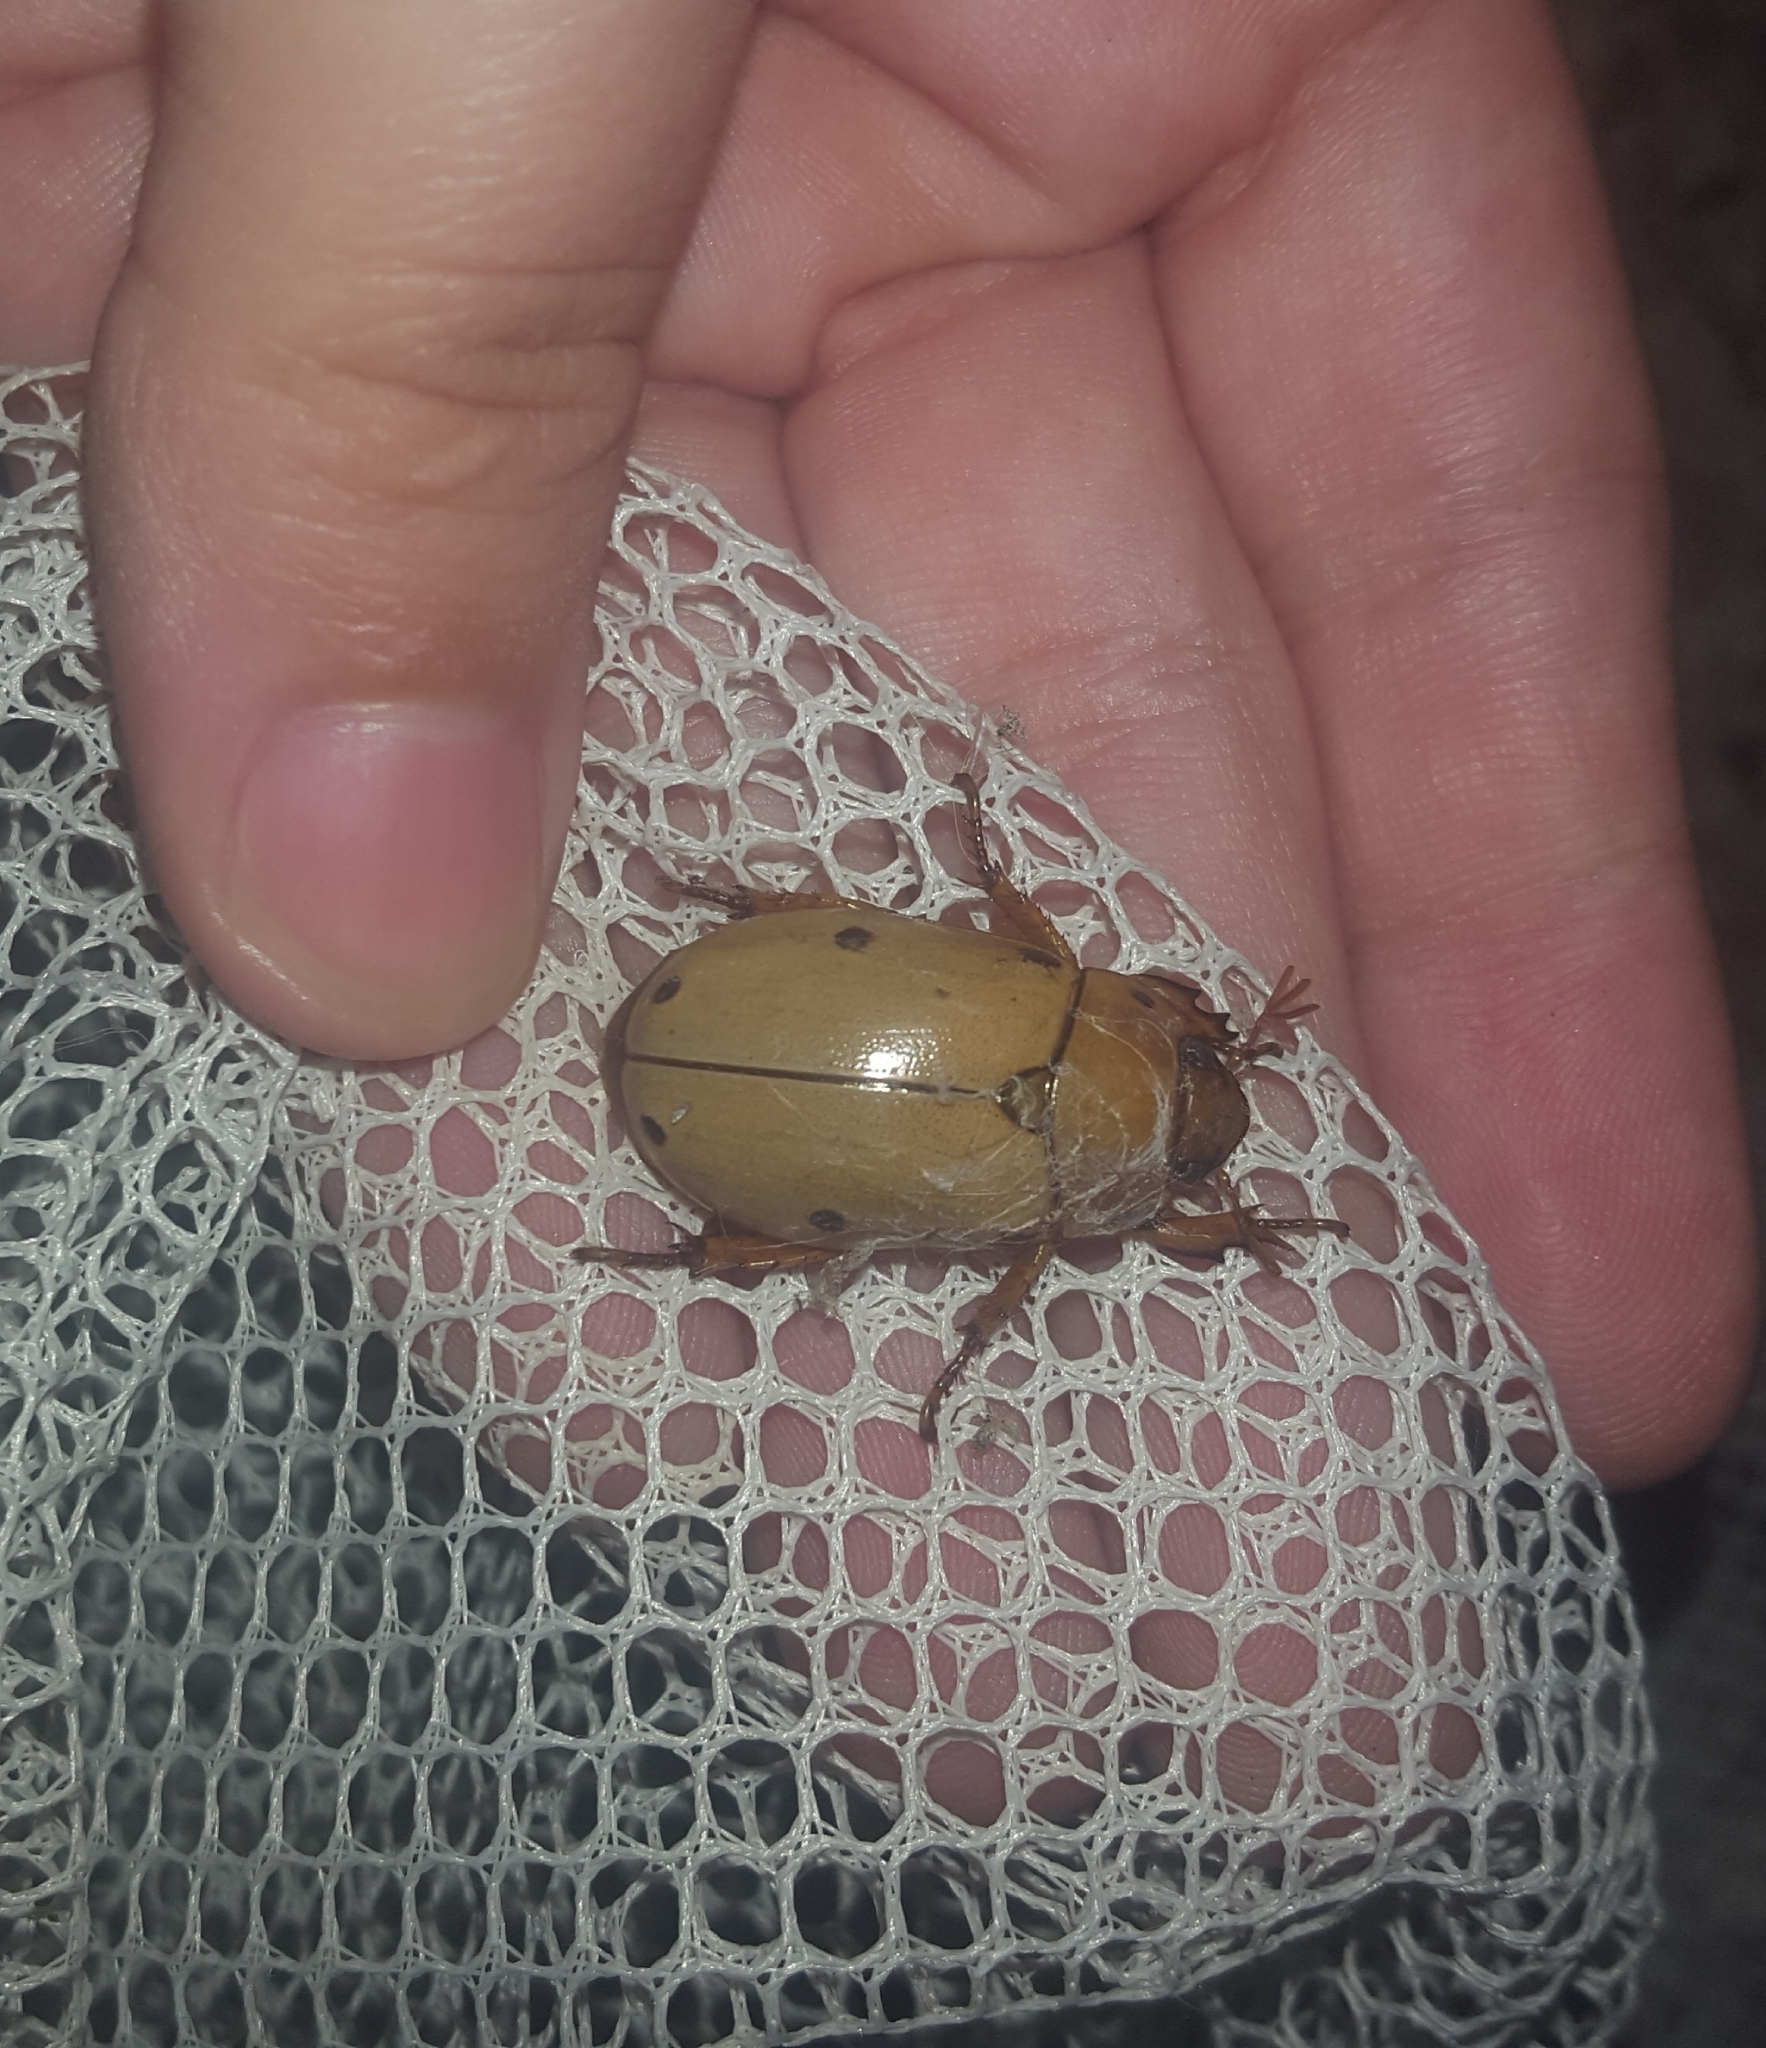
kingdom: Animalia
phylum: Arthropoda
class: Insecta
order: Coleoptera
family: Scarabaeidae
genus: Pelidnota
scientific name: Pelidnota punctata
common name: Grapevine beetle
